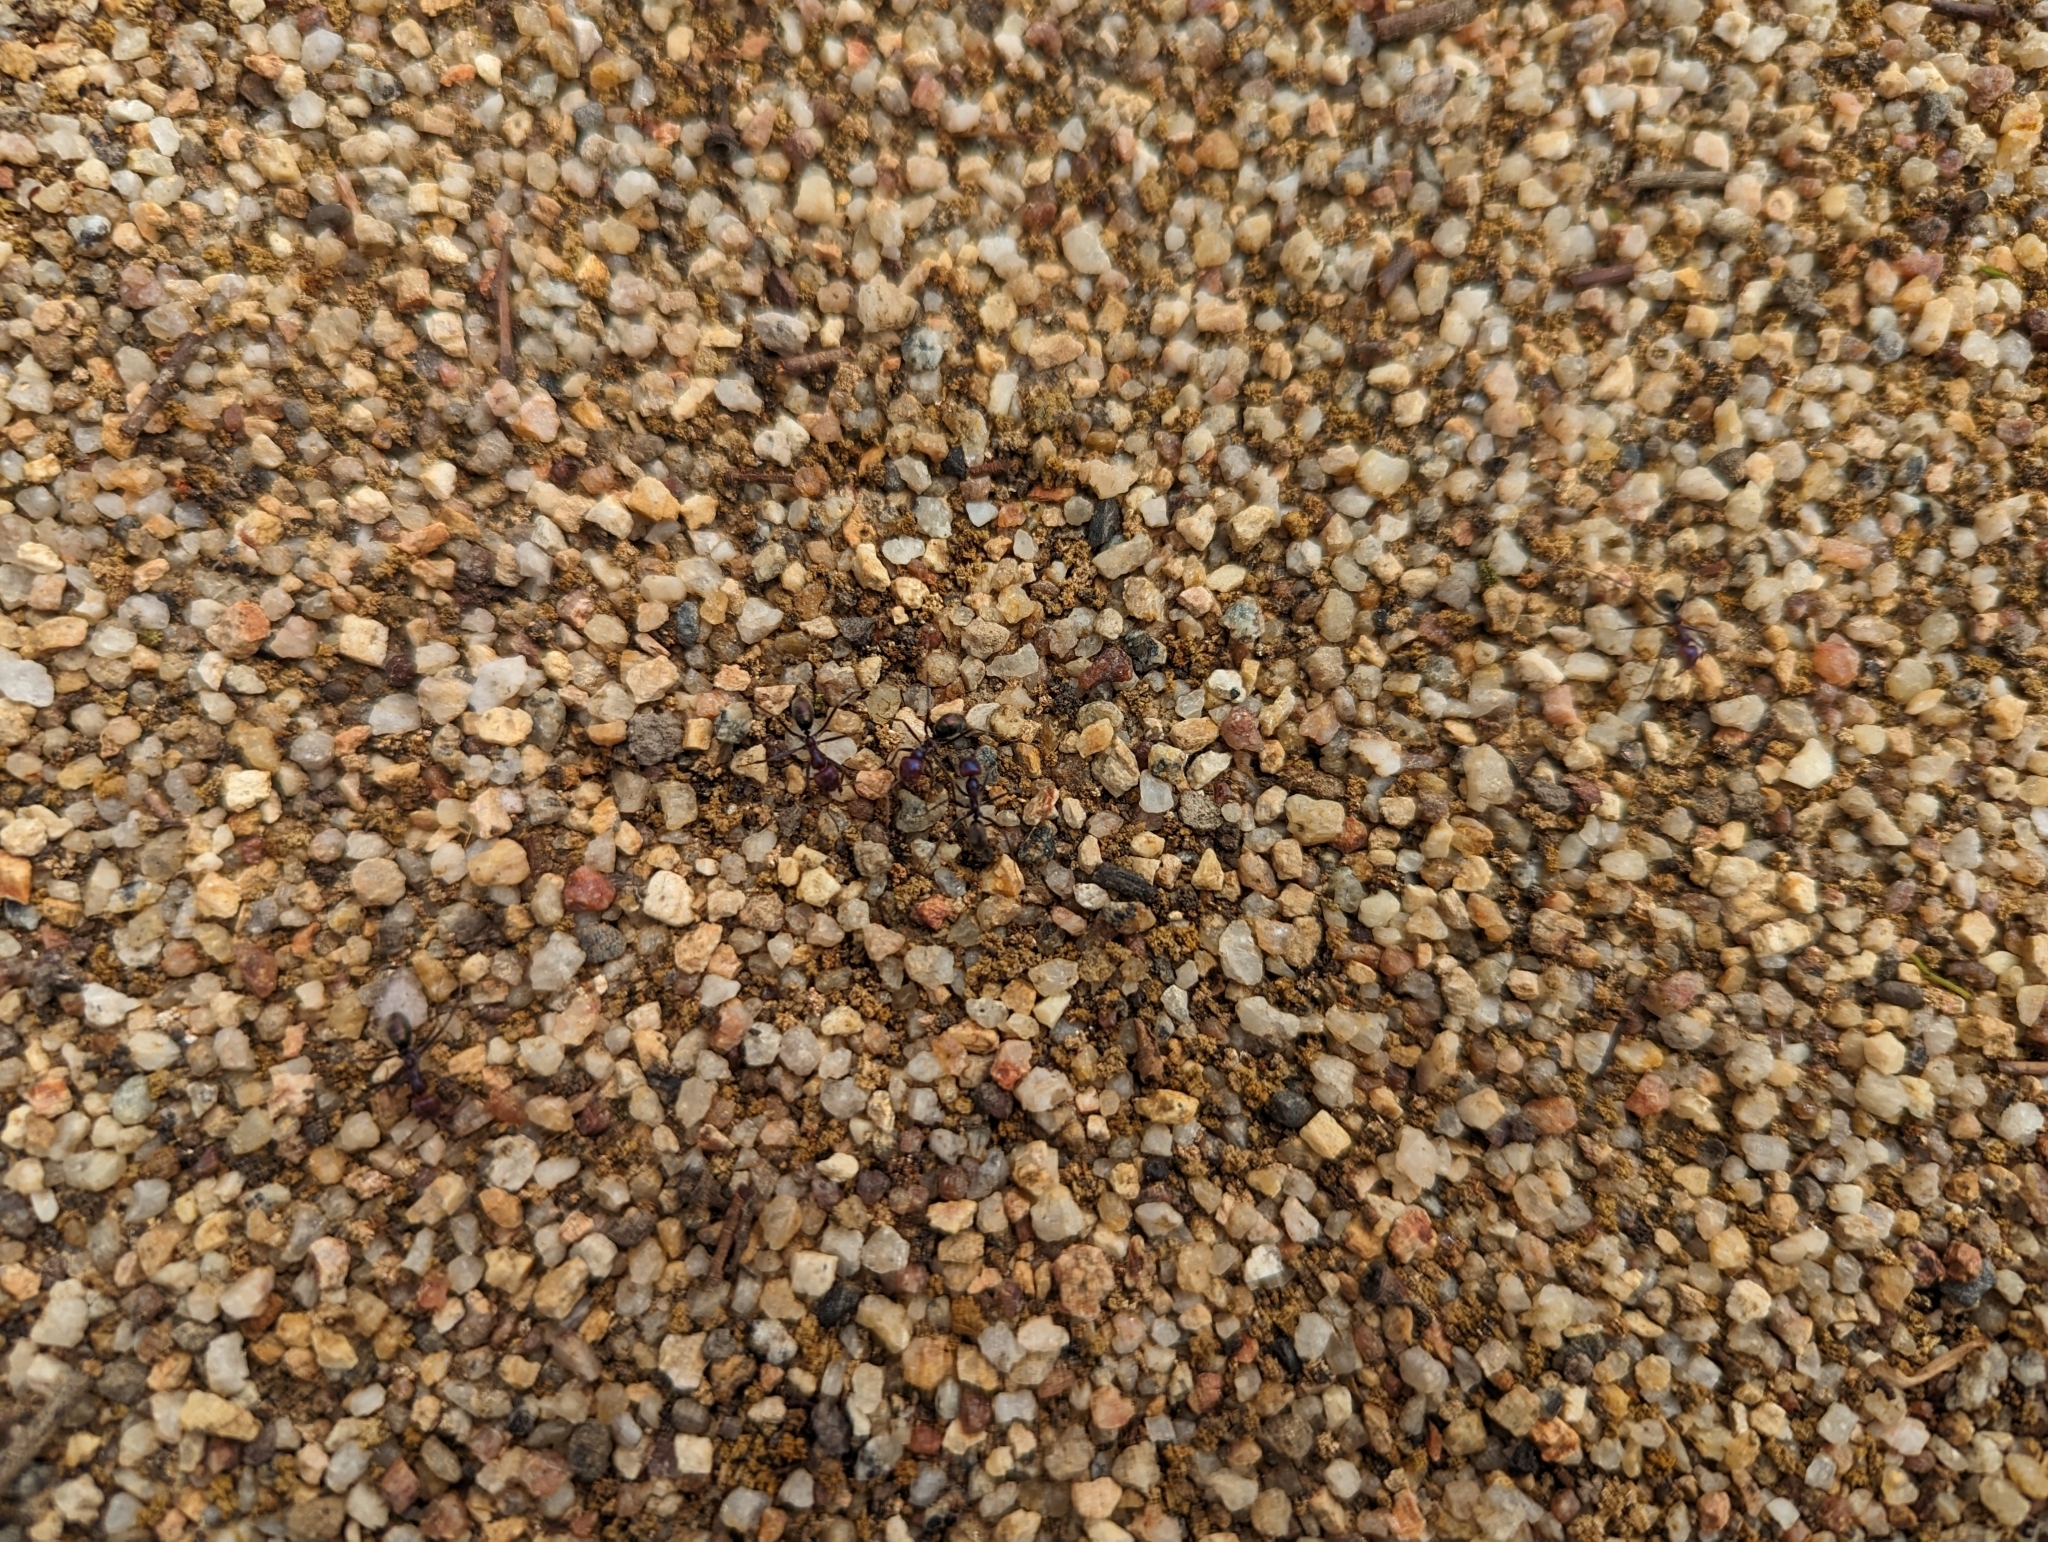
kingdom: Animalia
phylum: Arthropoda
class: Insecta
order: Hymenoptera
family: Formicidae
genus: Iridomyrmex
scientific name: Iridomyrmex purpureus
